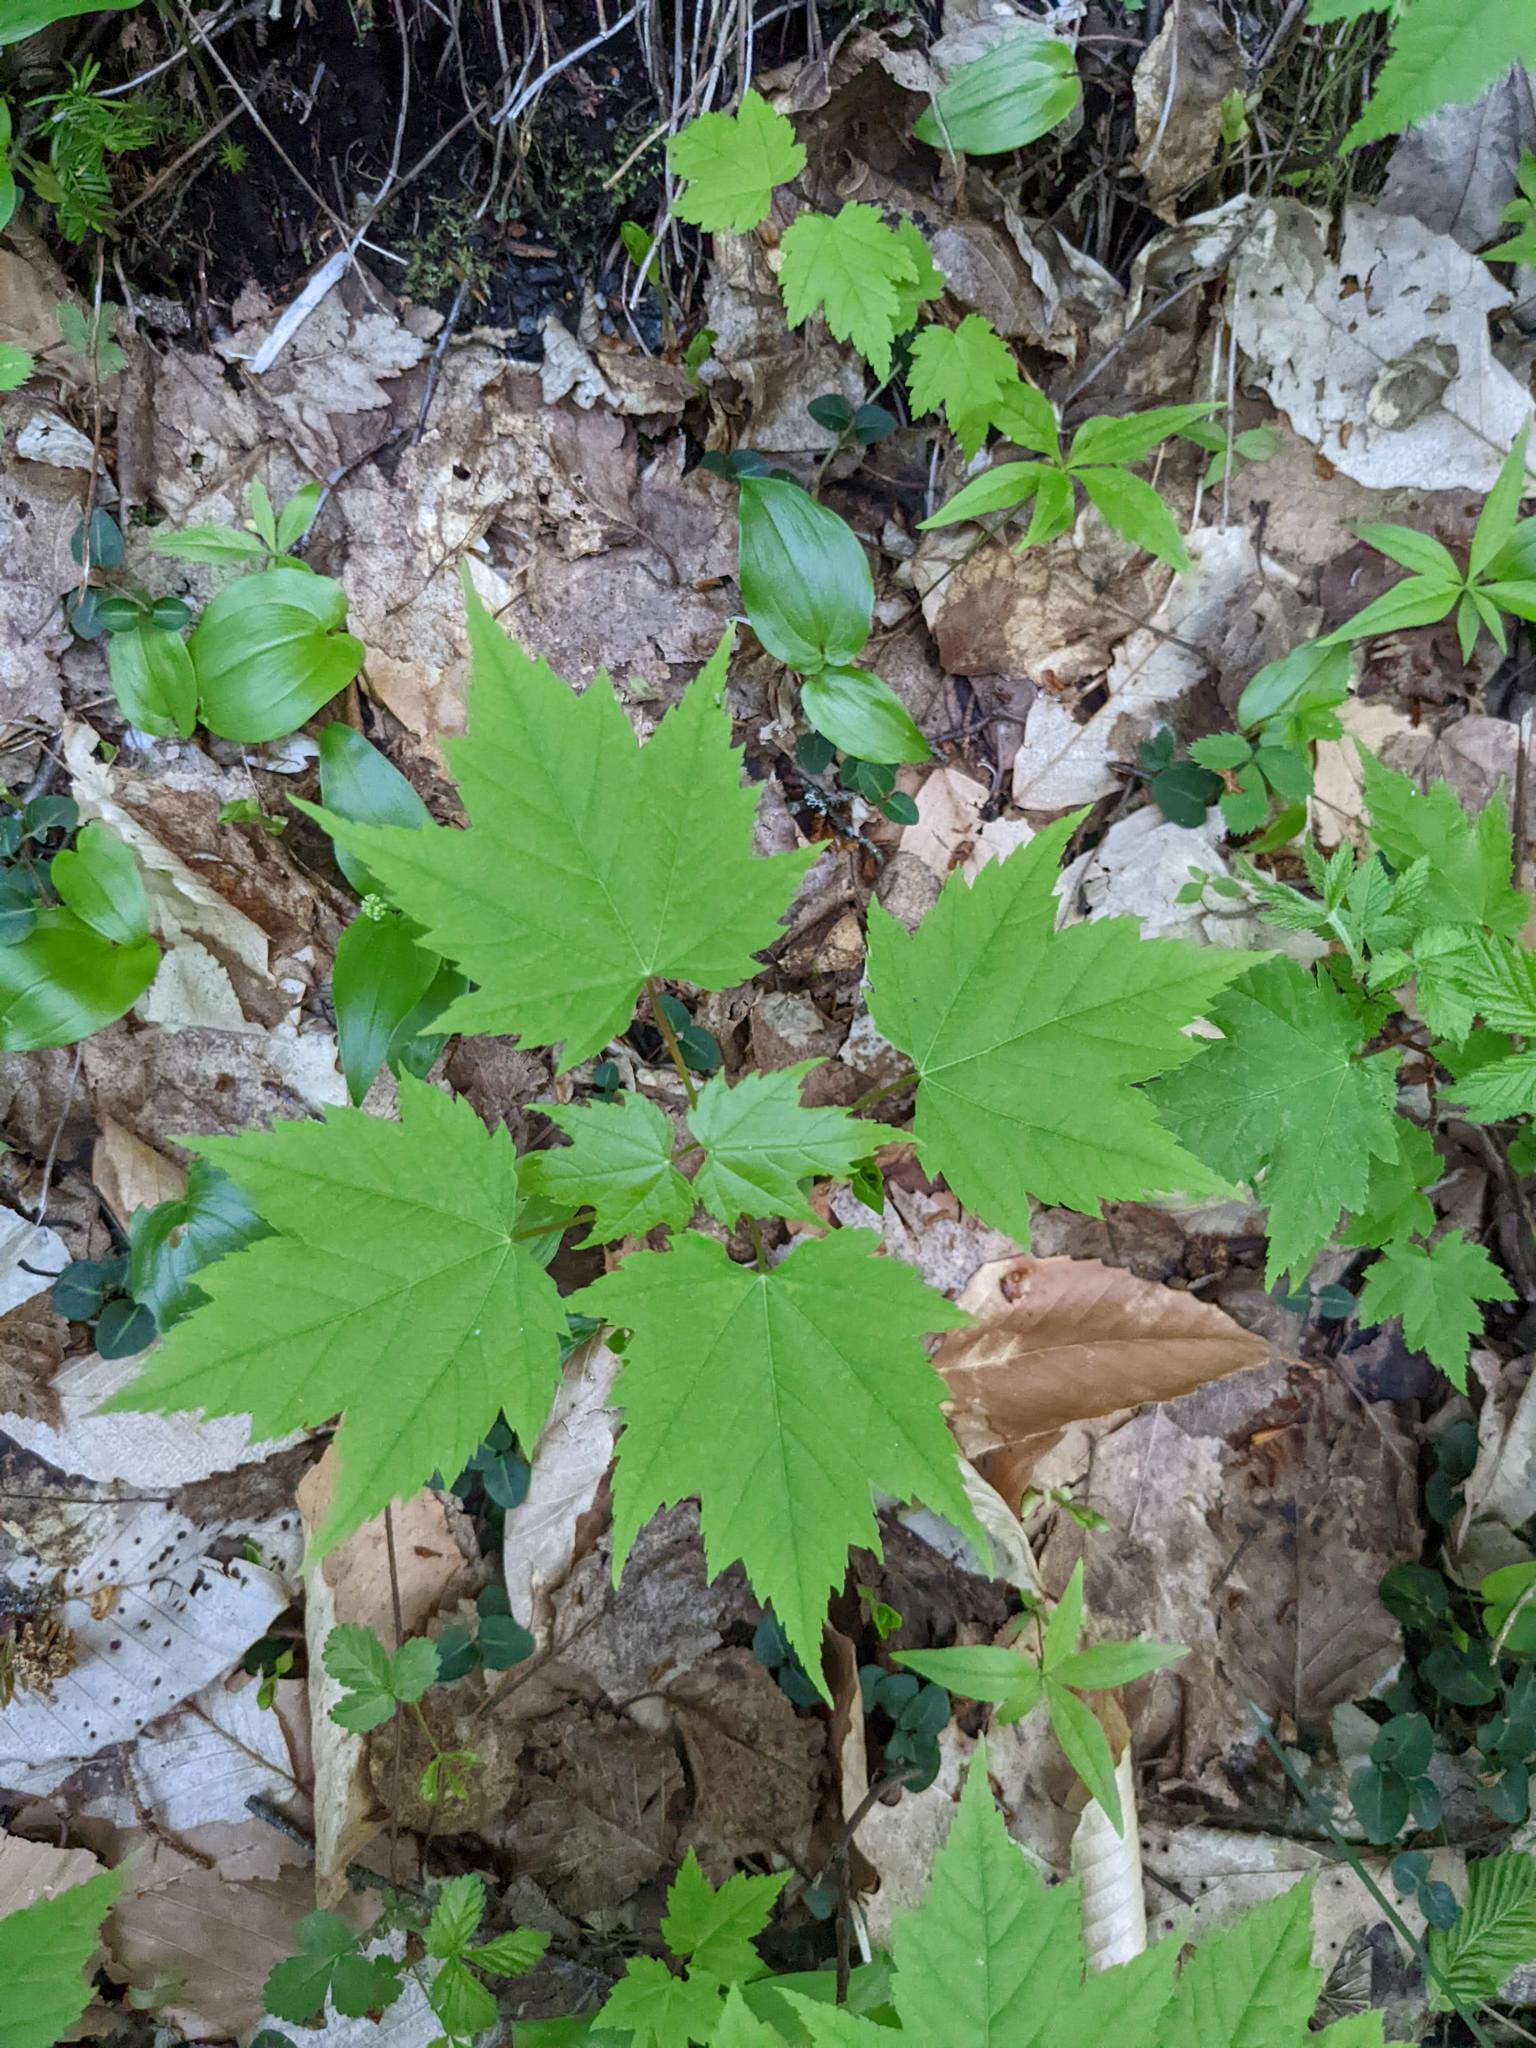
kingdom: Plantae
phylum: Tracheophyta
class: Magnoliopsida
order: Sapindales
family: Sapindaceae
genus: Acer
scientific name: Acer rubrum
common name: Red maple
